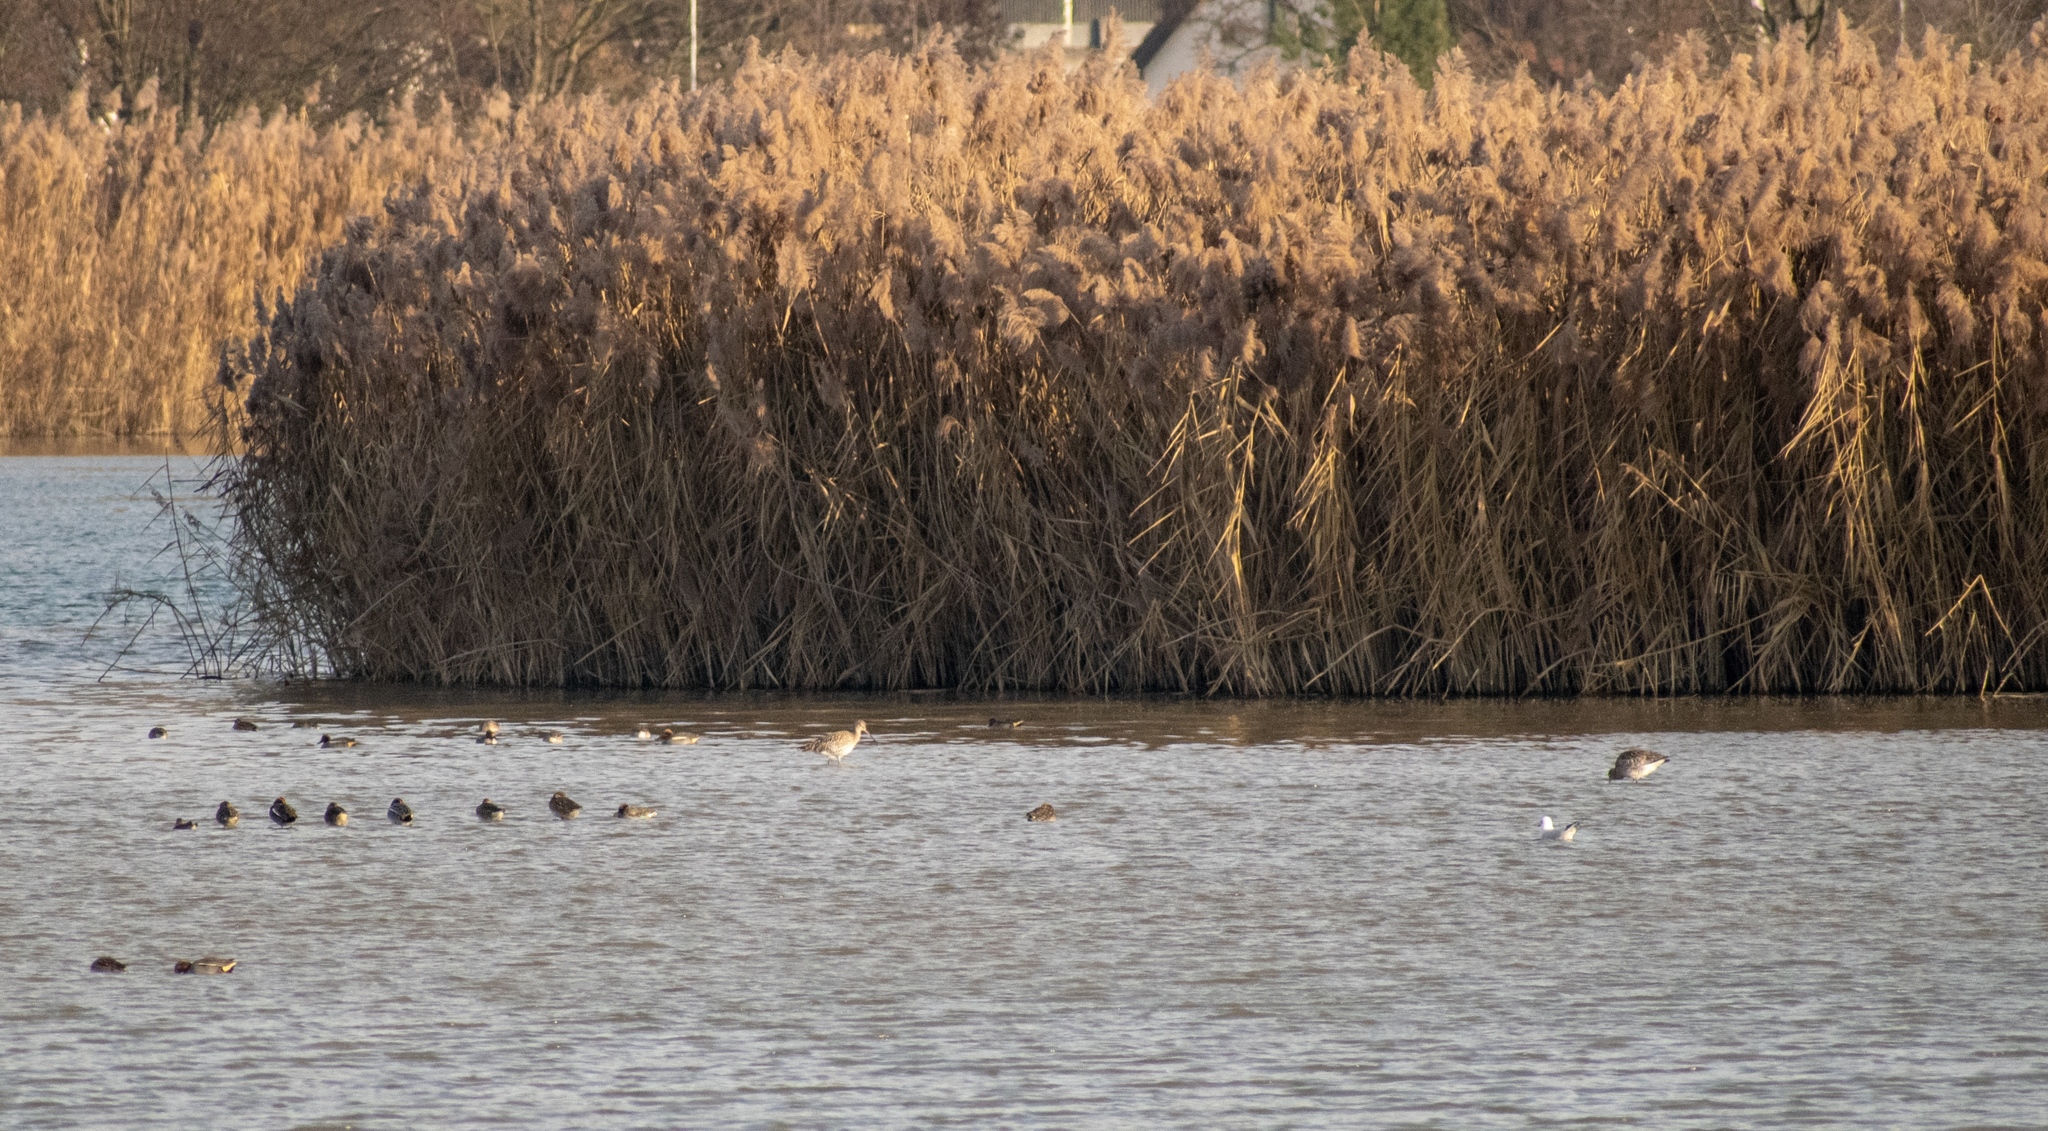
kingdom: Animalia
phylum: Chordata
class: Aves
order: Charadriiformes
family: Scolopacidae
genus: Numenius
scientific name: Numenius arquata
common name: Eurasian curlew
